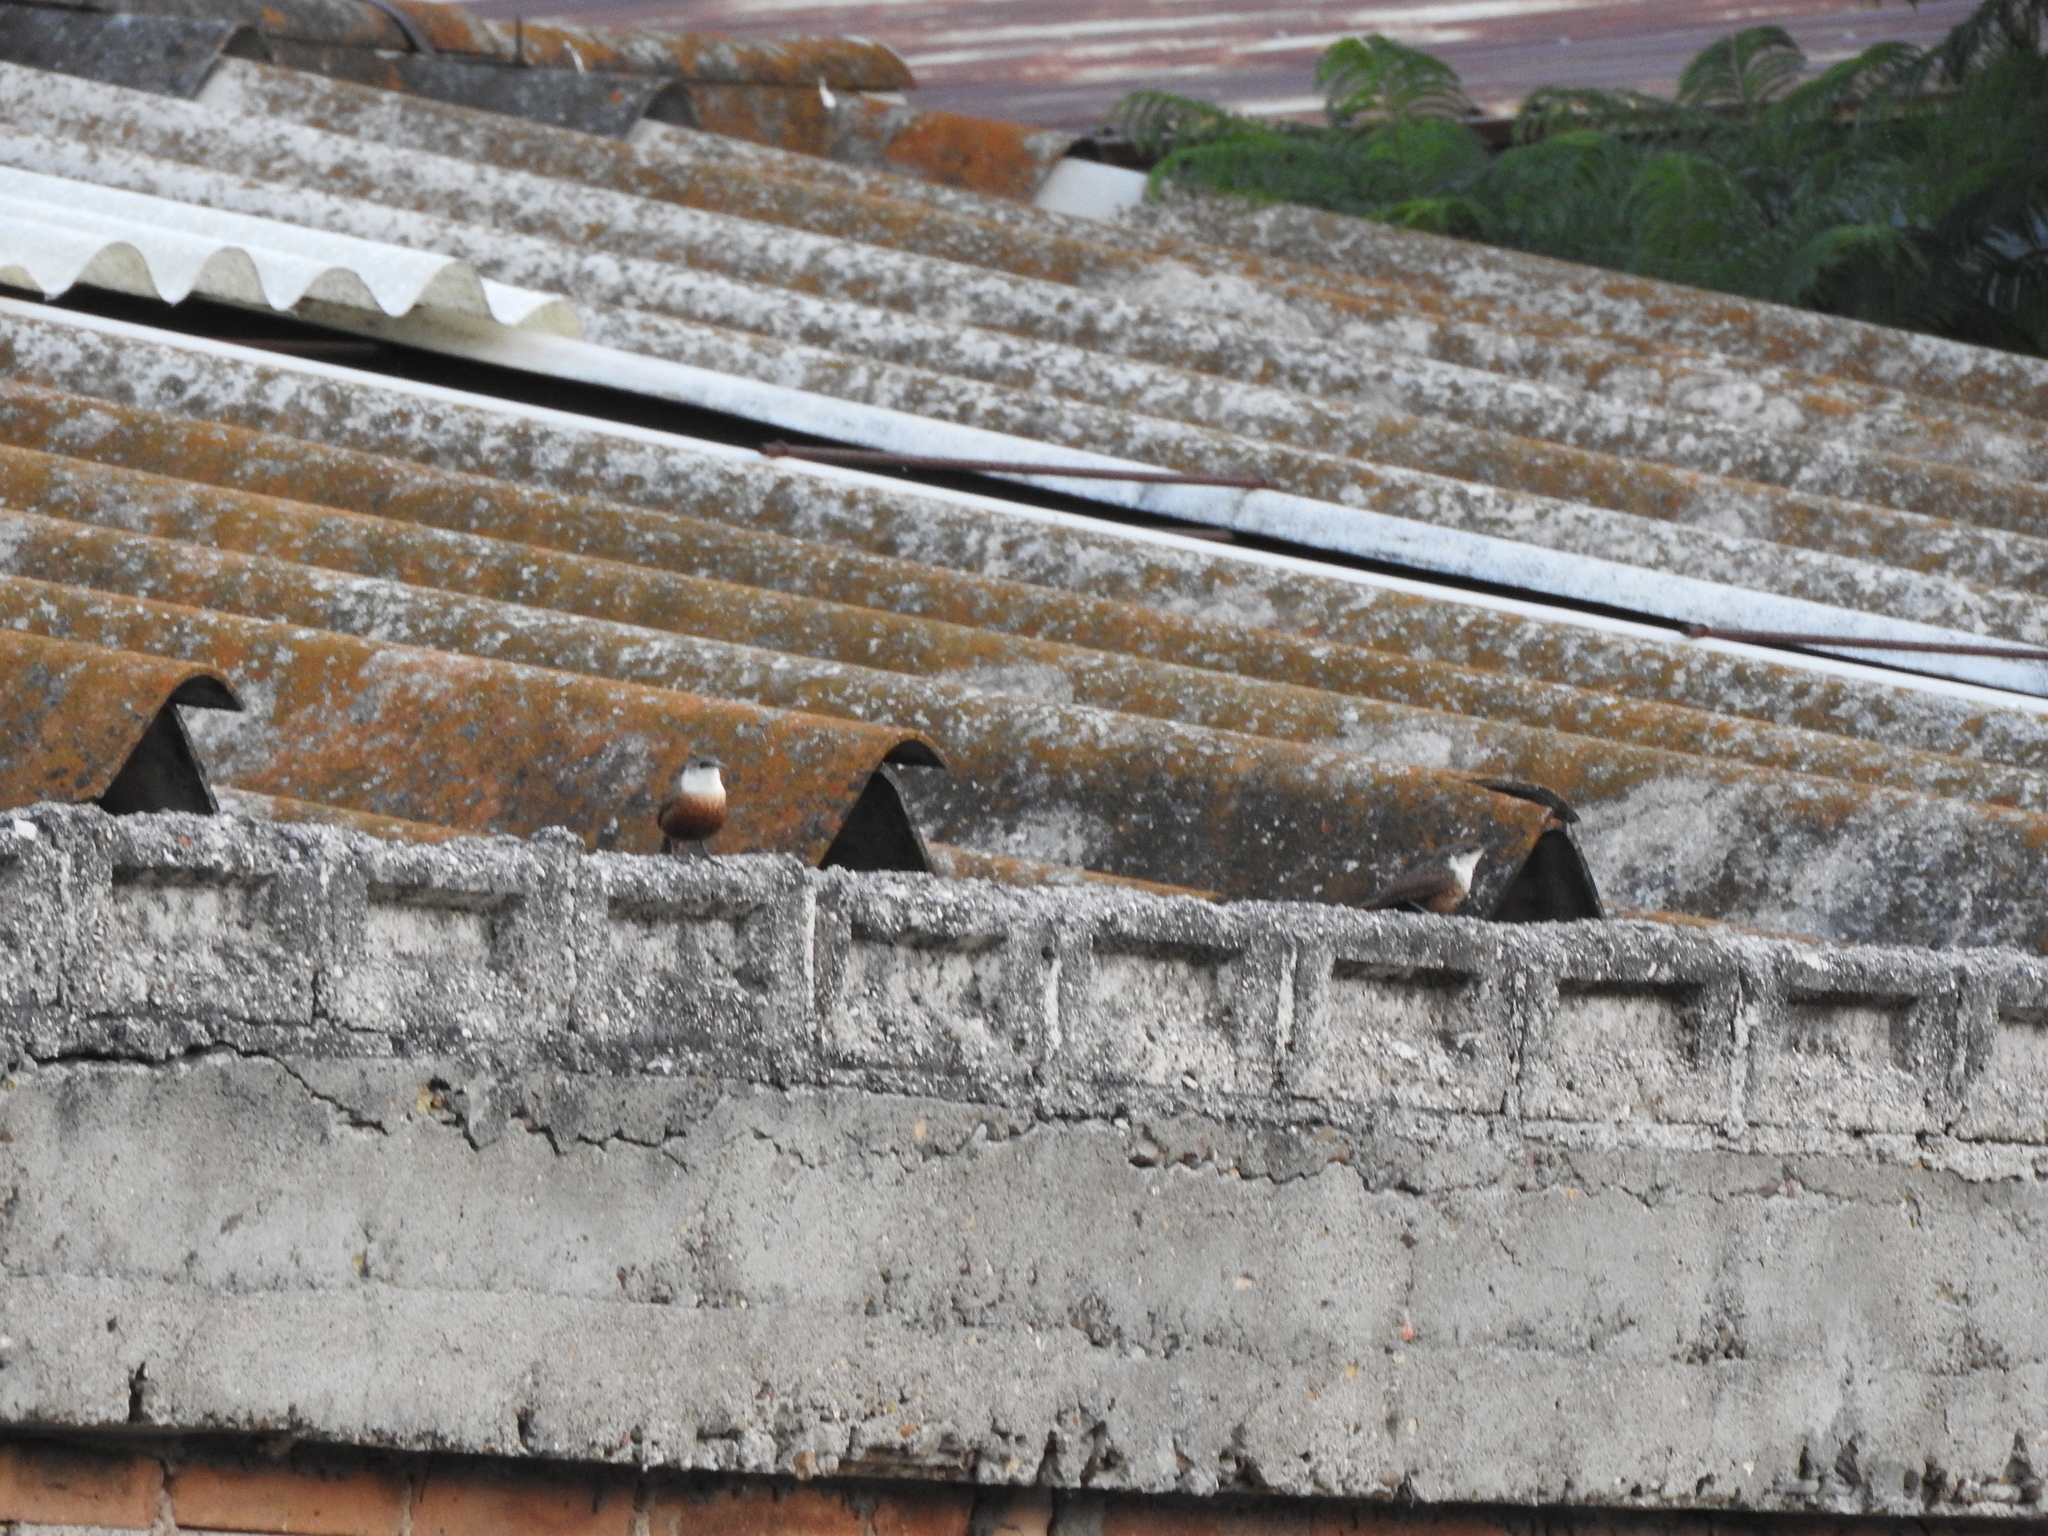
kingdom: Animalia
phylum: Chordata
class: Aves
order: Passeriformes
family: Troglodytidae
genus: Catherpes
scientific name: Catherpes mexicanus
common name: Canyon wren
